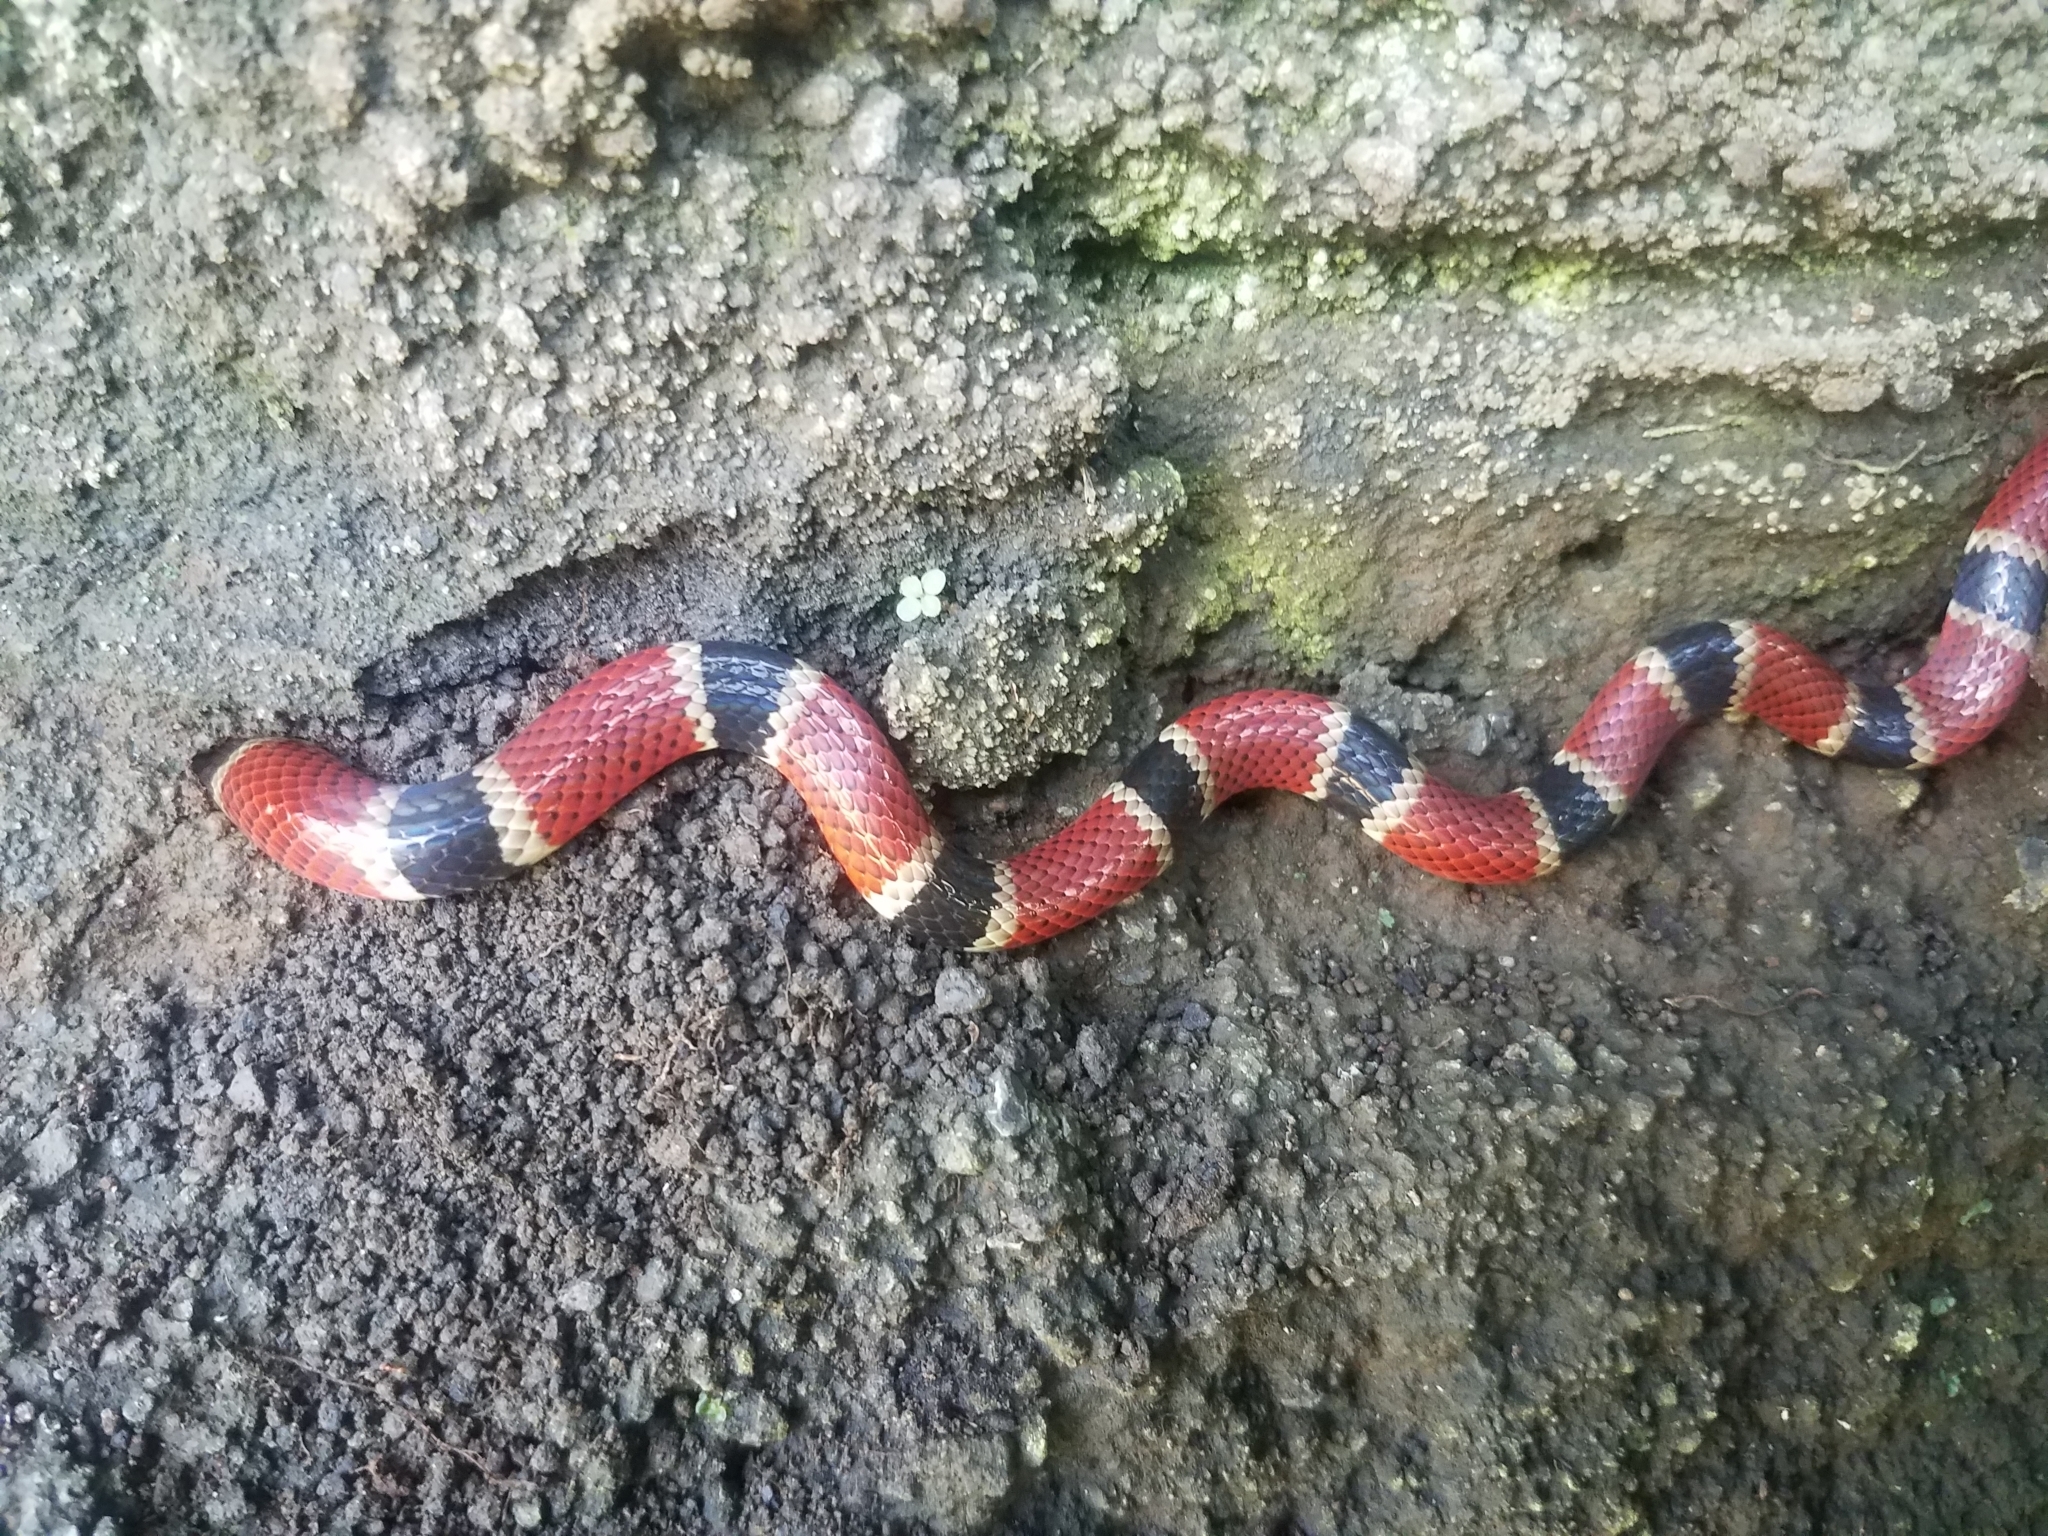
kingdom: Animalia
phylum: Chordata
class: Squamata
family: Elapidae
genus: Micrurus
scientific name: Micrurus nigrocinctus
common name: Babaspul [babaspul]
